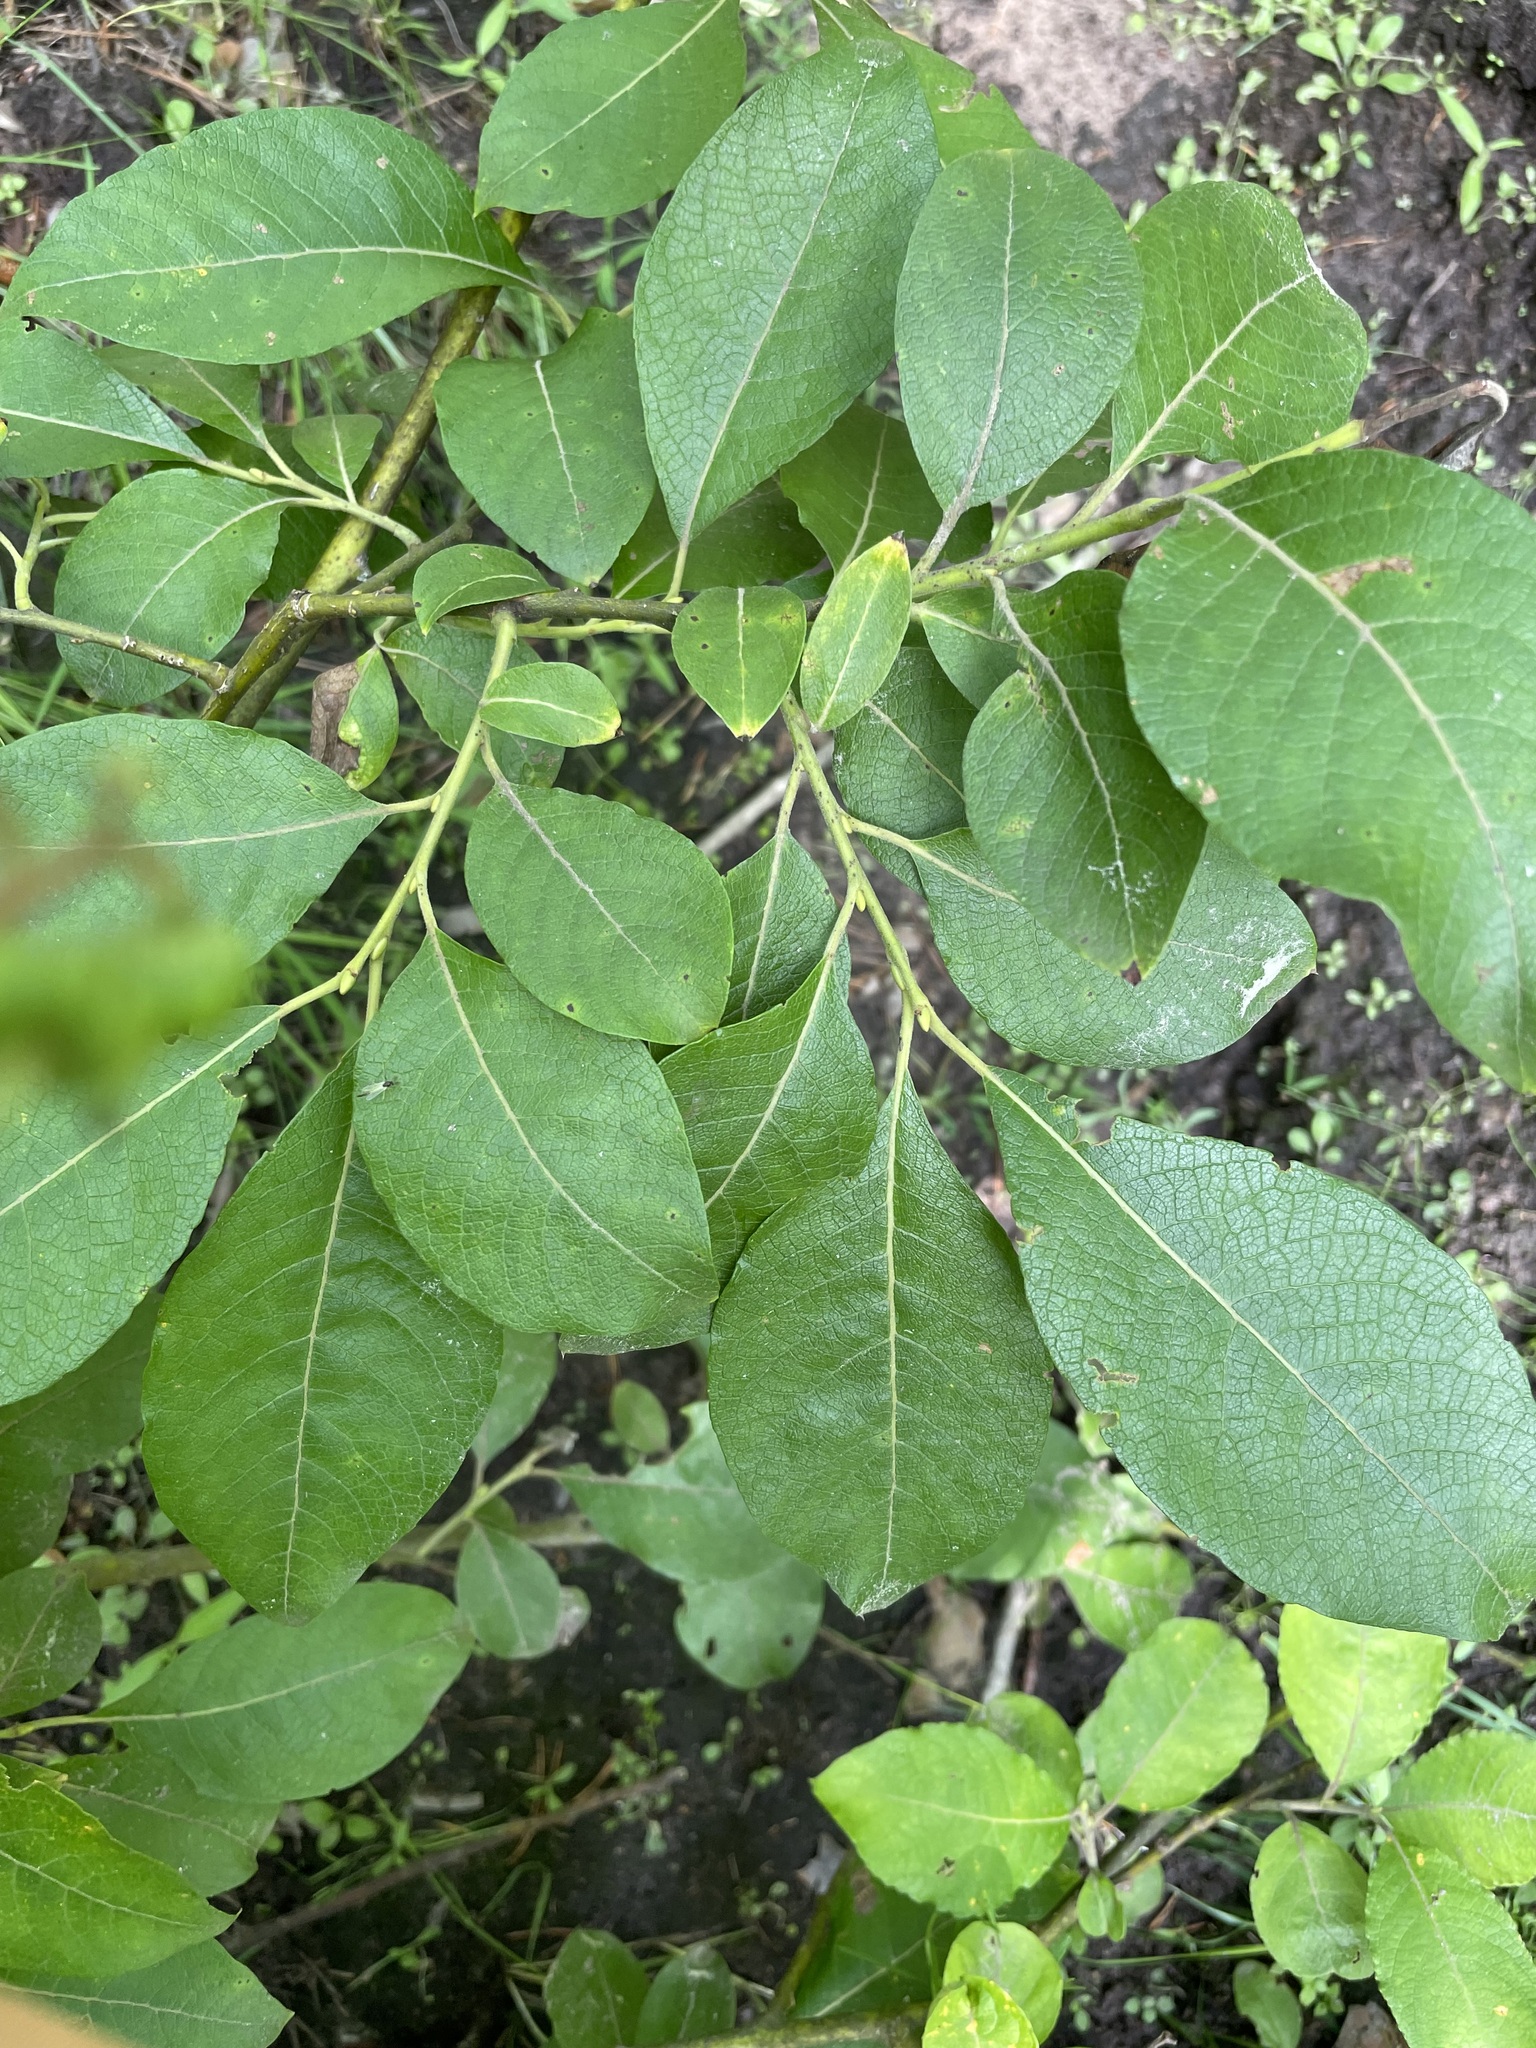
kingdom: Plantae
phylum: Tracheophyta
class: Magnoliopsida
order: Malpighiales
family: Salicaceae
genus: Salix
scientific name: Salix caprea
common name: Goat willow
